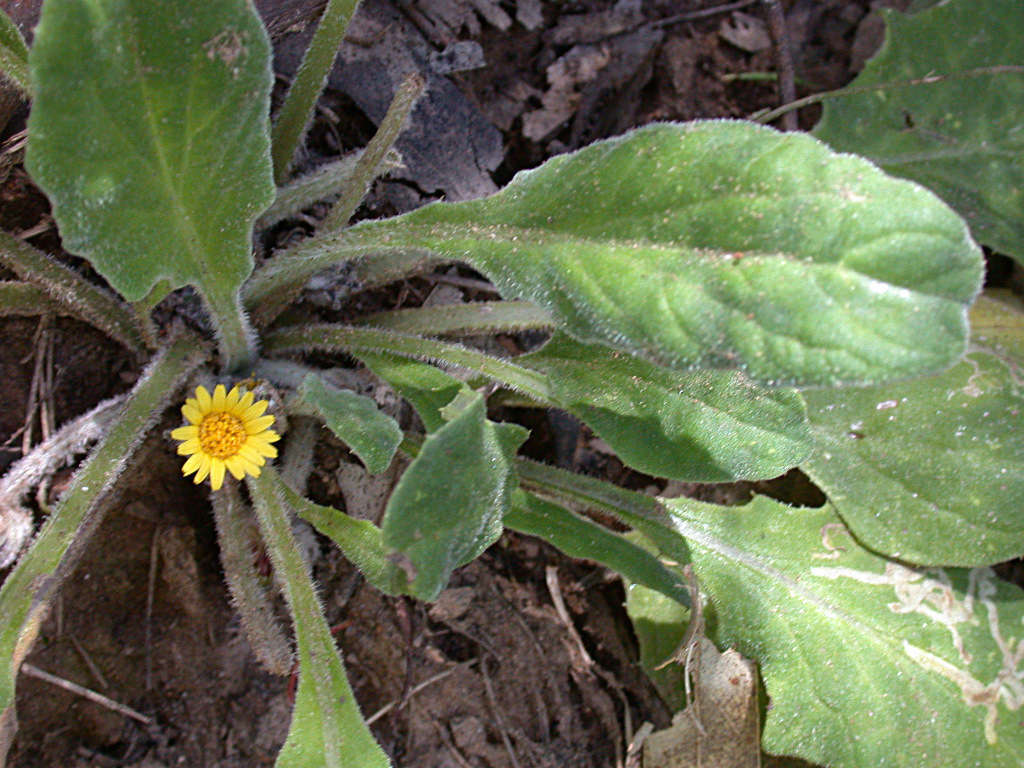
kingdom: Plantae
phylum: Tracheophyta
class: Magnoliopsida
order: Asterales
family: Asteraceae
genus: Cymbonotus
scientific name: Cymbonotus preissianus
